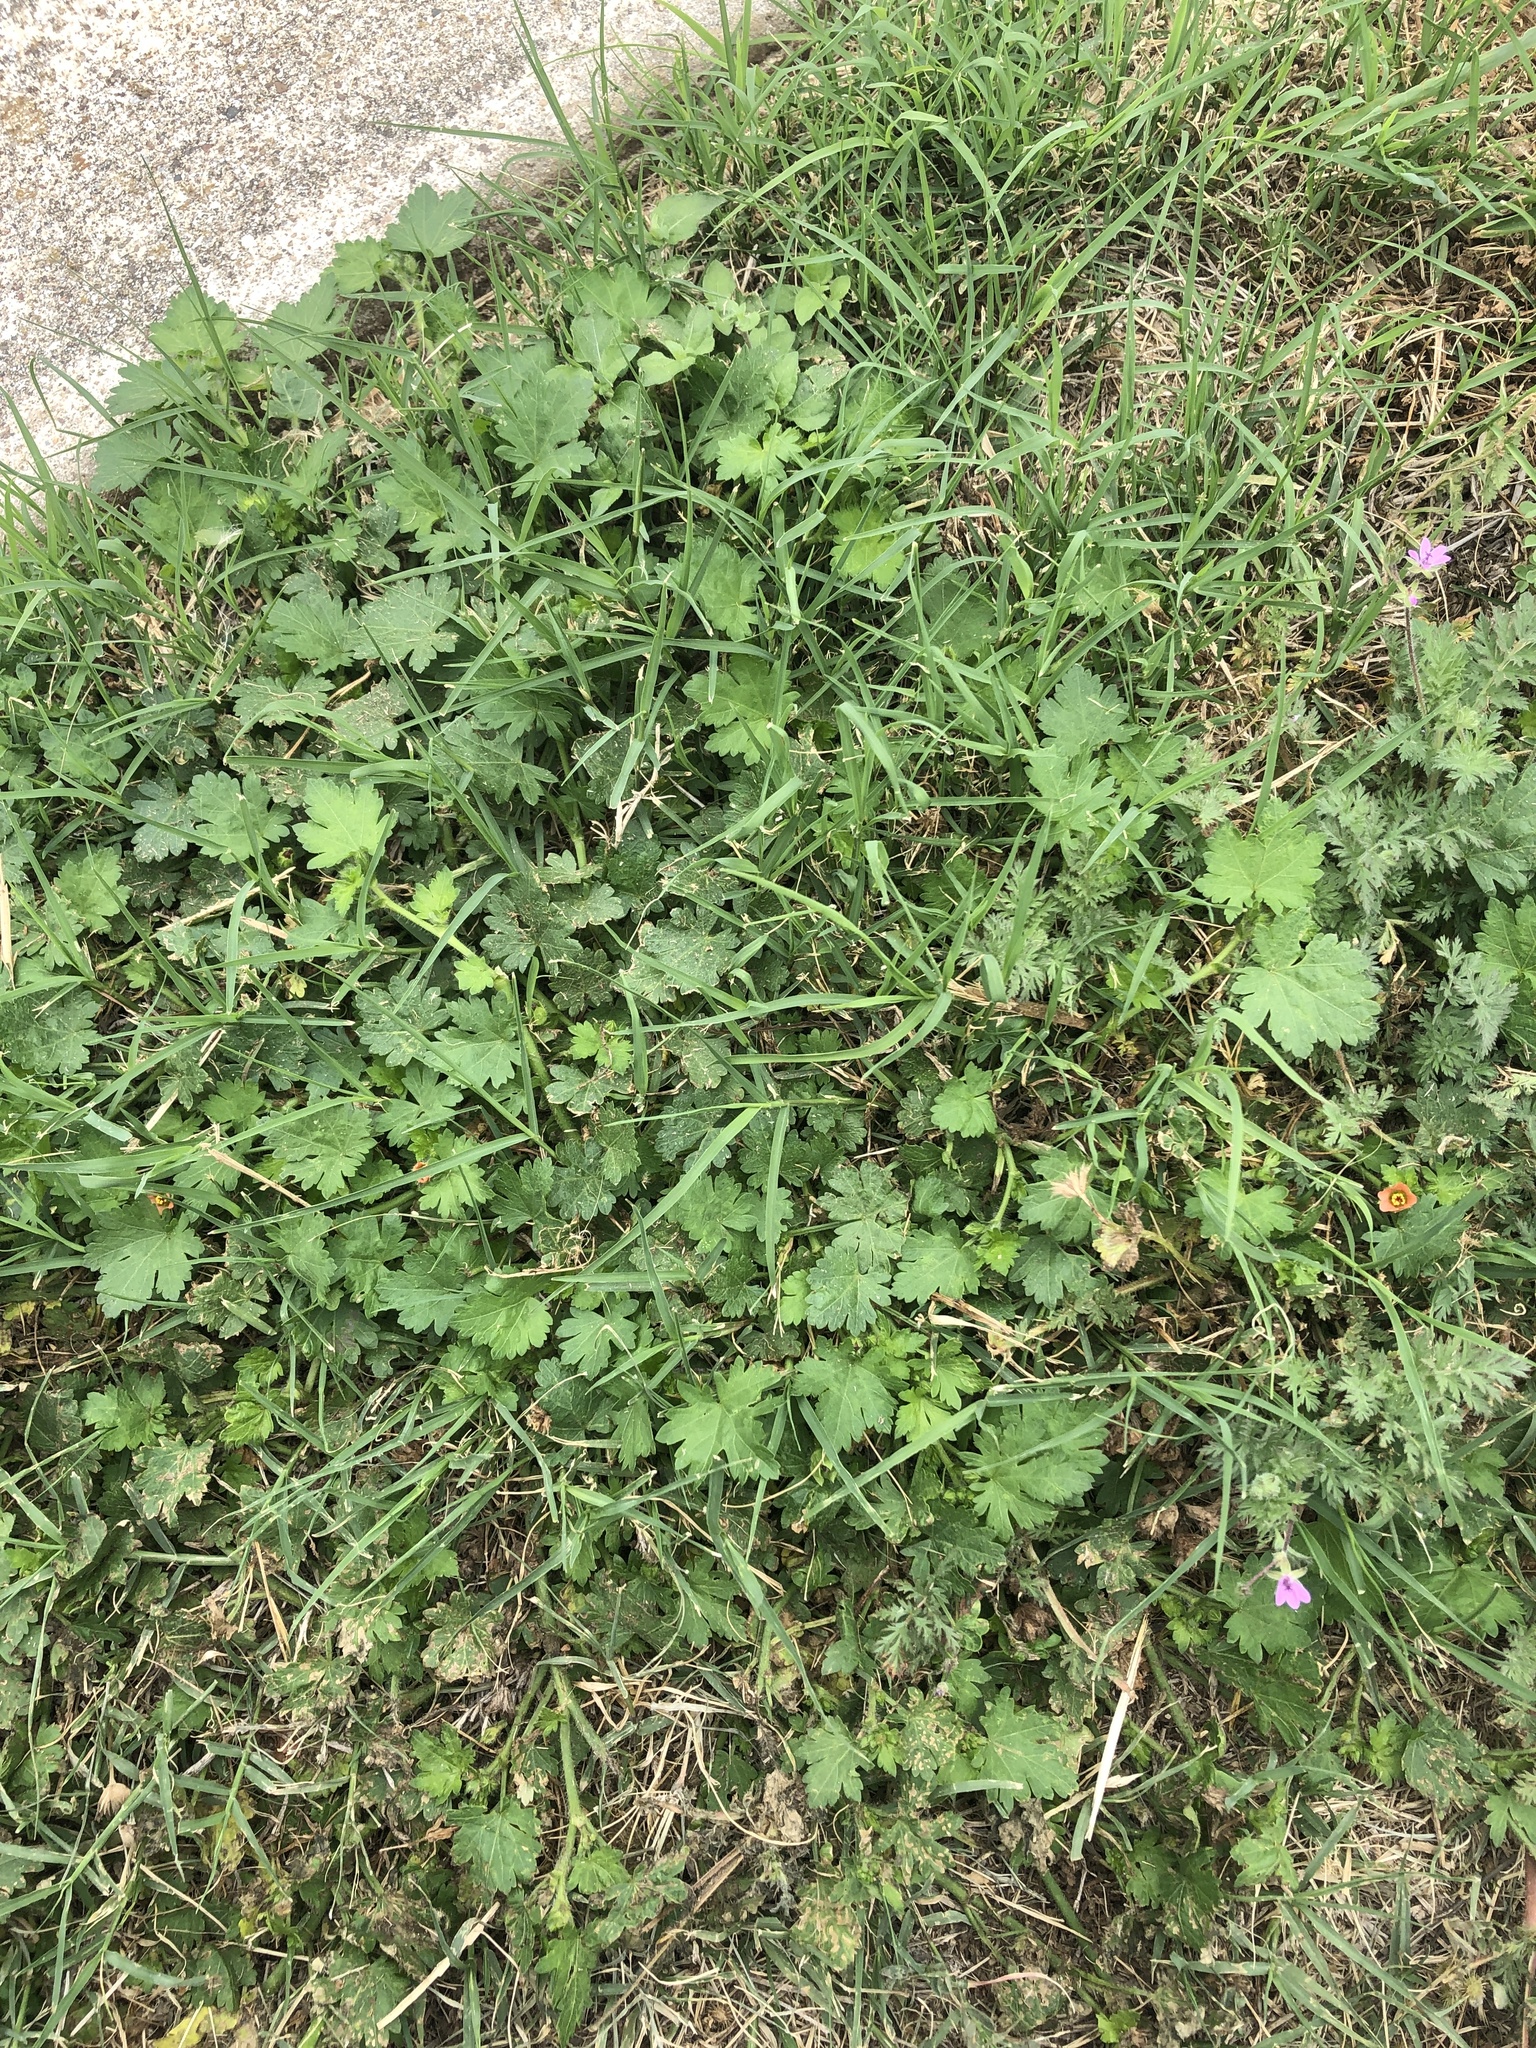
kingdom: Plantae
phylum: Tracheophyta
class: Magnoliopsida
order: Malvales
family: Malvaceae
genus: Modiola
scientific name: Modiola caroliniana
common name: Carolina bristlemallow
